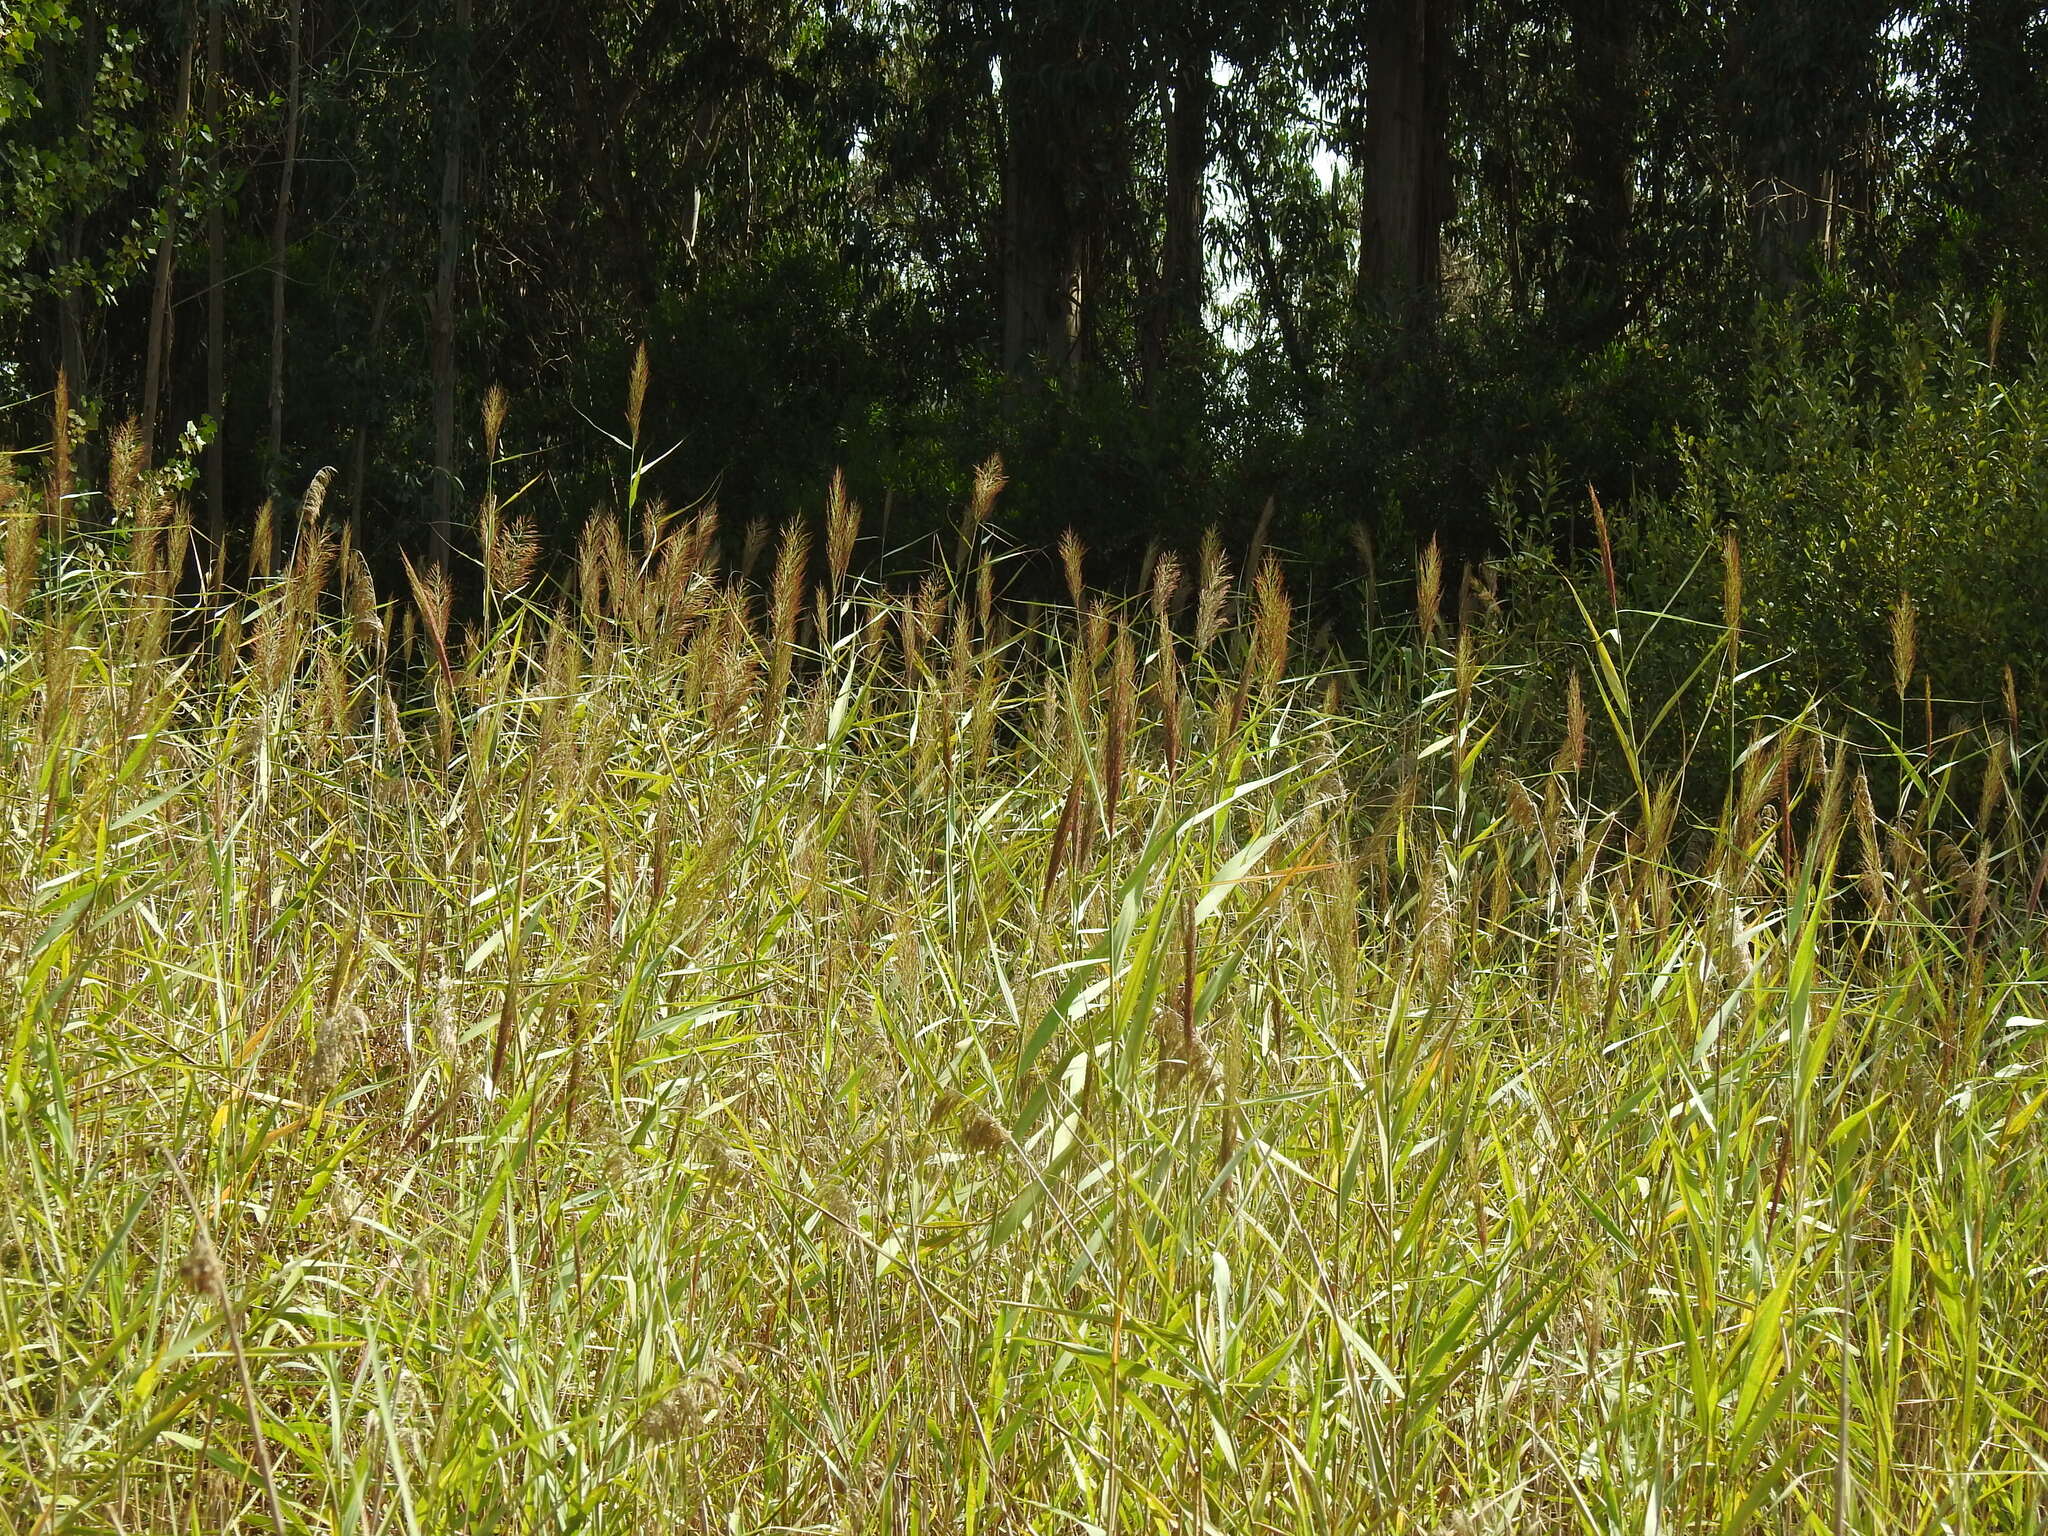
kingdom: Plantae
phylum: Tracheophyta
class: Liliopsida
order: Poales
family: Poaceae
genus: Phragmites
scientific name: Phragmites australis
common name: Common reed
